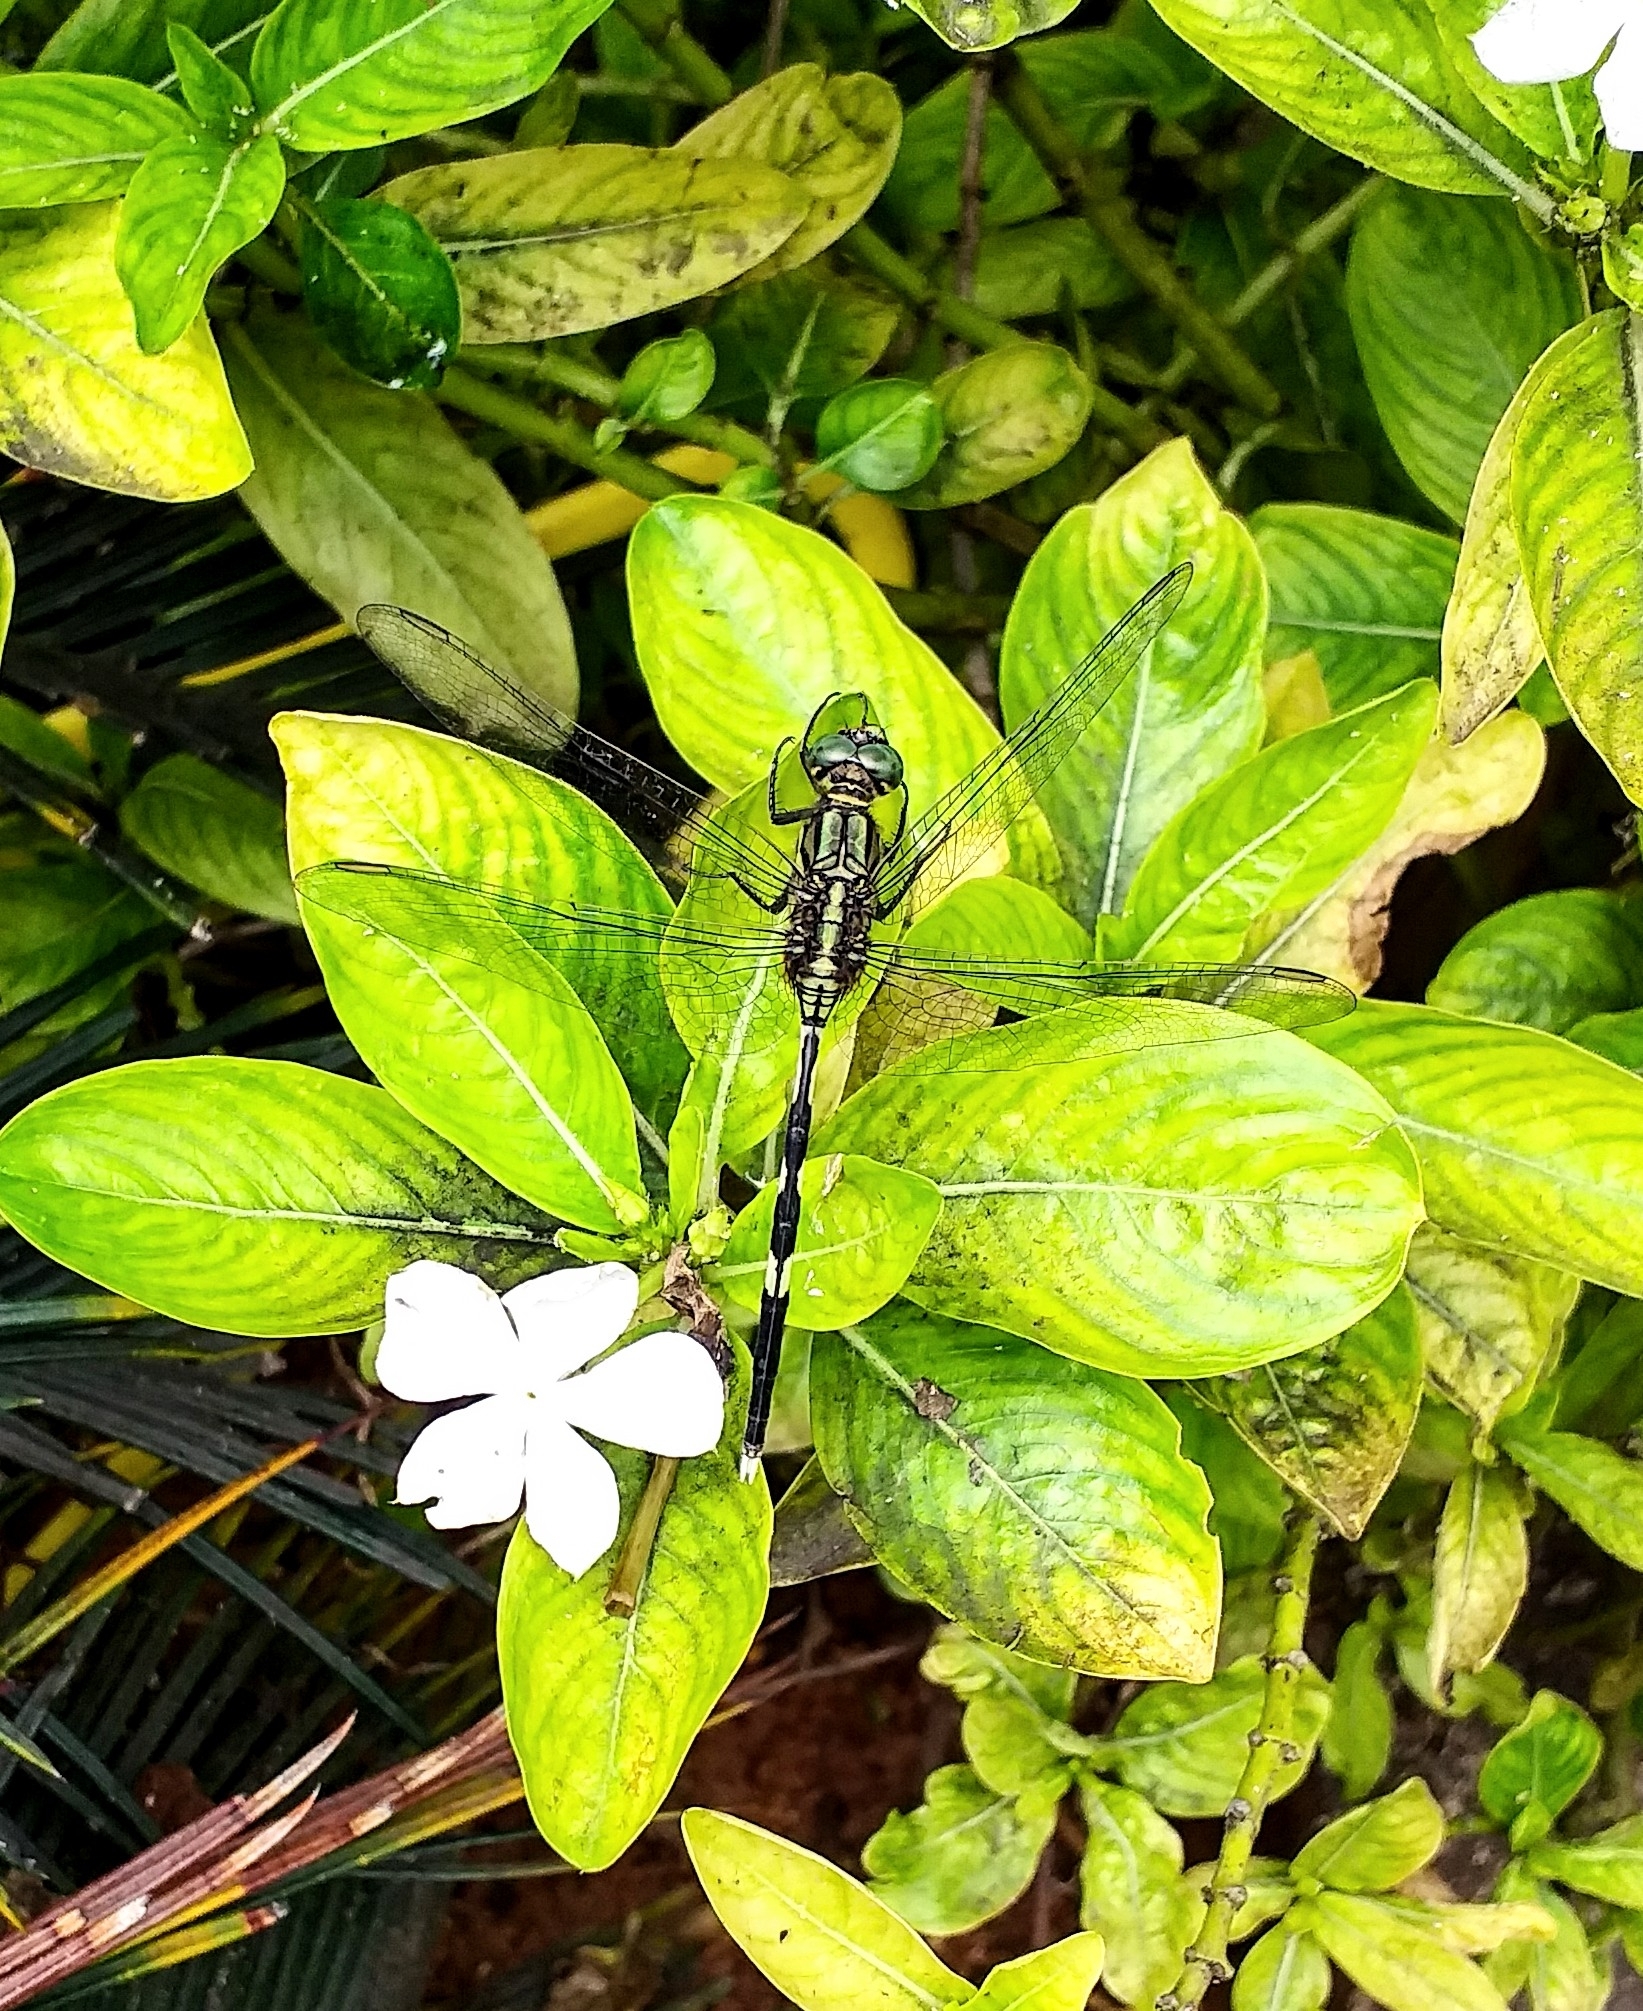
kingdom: Animalia
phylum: Arthropoda
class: Insecta
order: Odonata
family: Libellulidae
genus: Orthetrum
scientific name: Orthetrum sabina
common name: Slender skimmer
